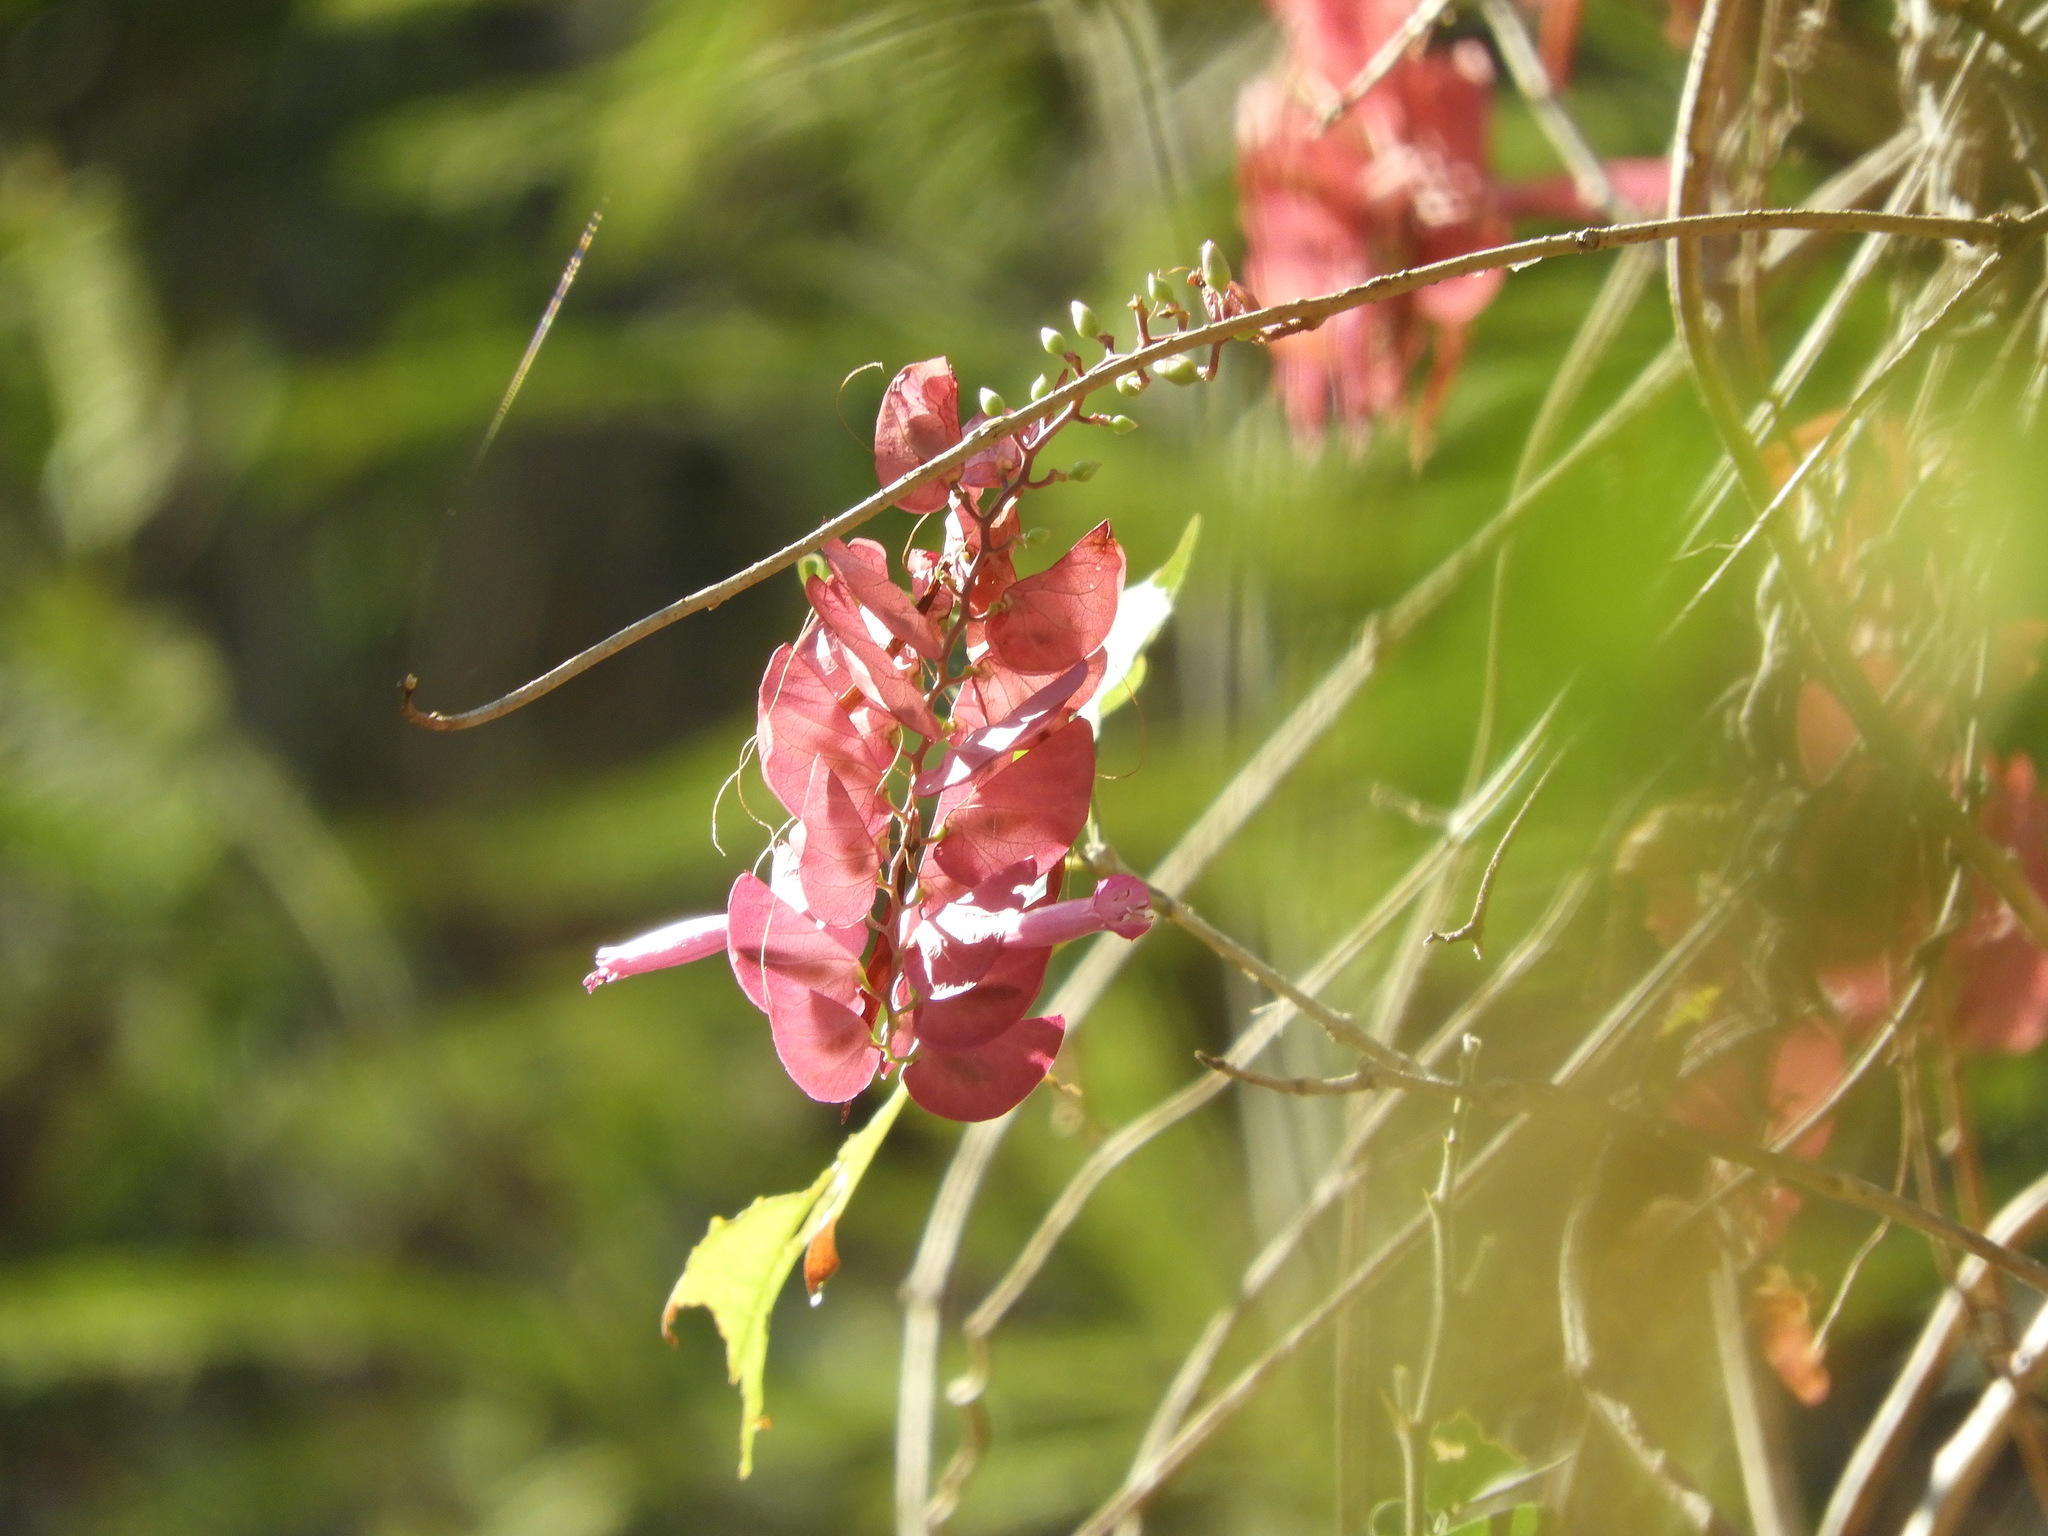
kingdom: Plantae
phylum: Tracheophyta
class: Magnoliopsida
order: Solanales
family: Convolvulaceae
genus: Ipomoea
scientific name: Ipomoea bracteata
